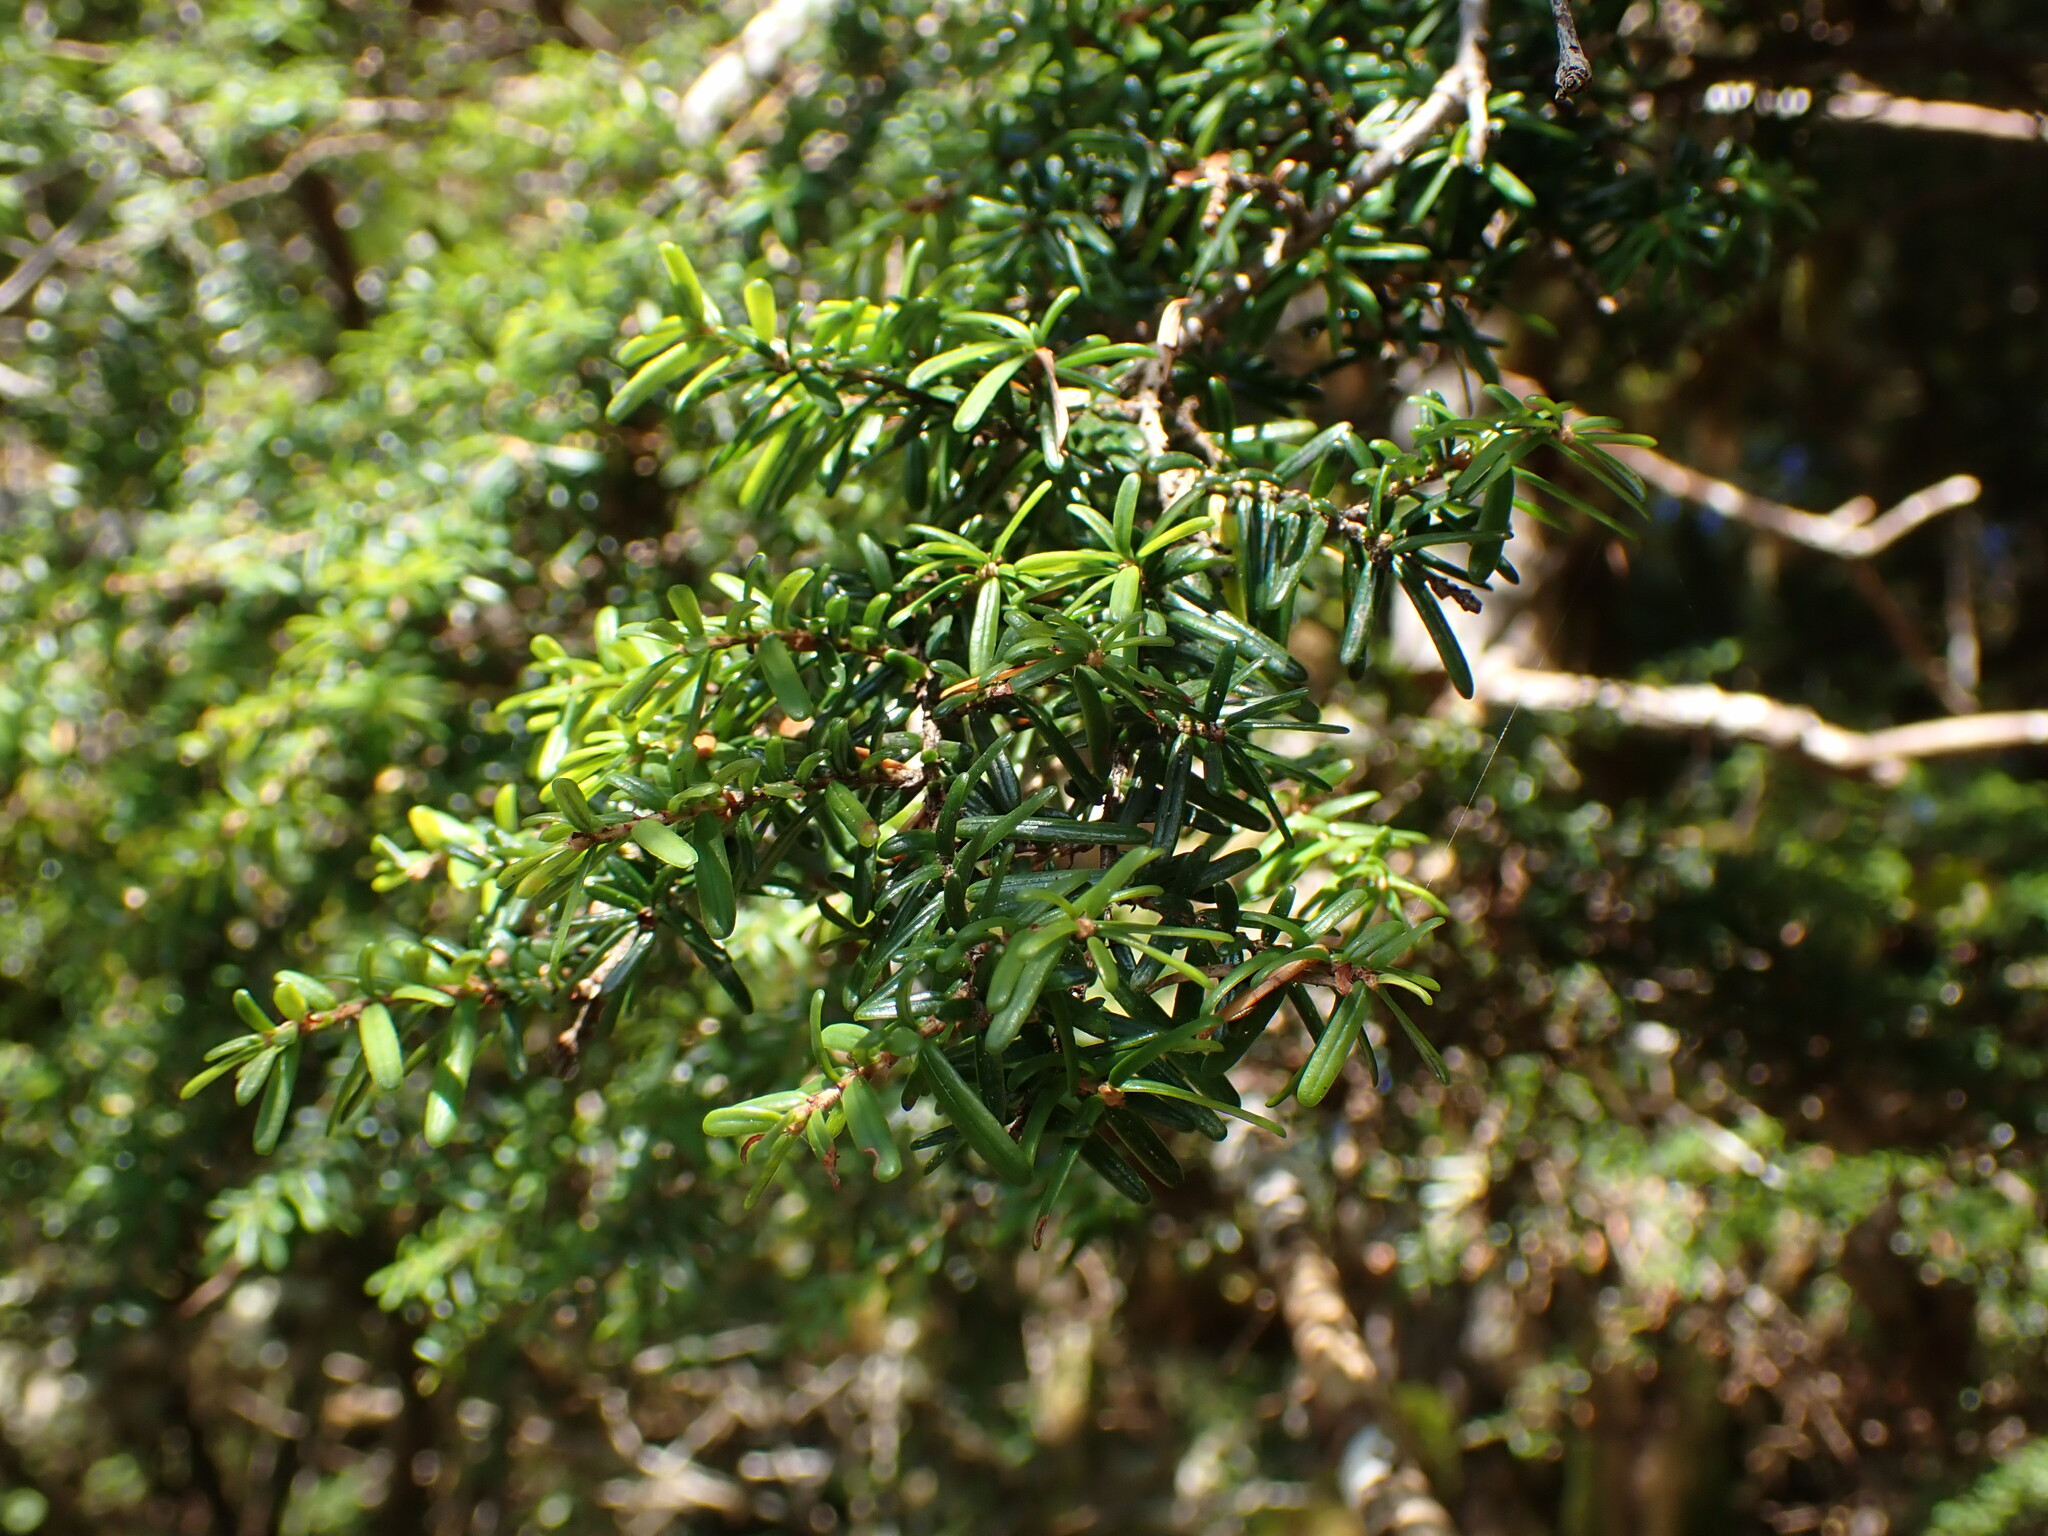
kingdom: Plantae
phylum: Tracheophyta
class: Pinopsida
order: Pinales
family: Pinaceae
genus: Tsuga
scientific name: Tsuga heterophylla
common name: Western hemlock
